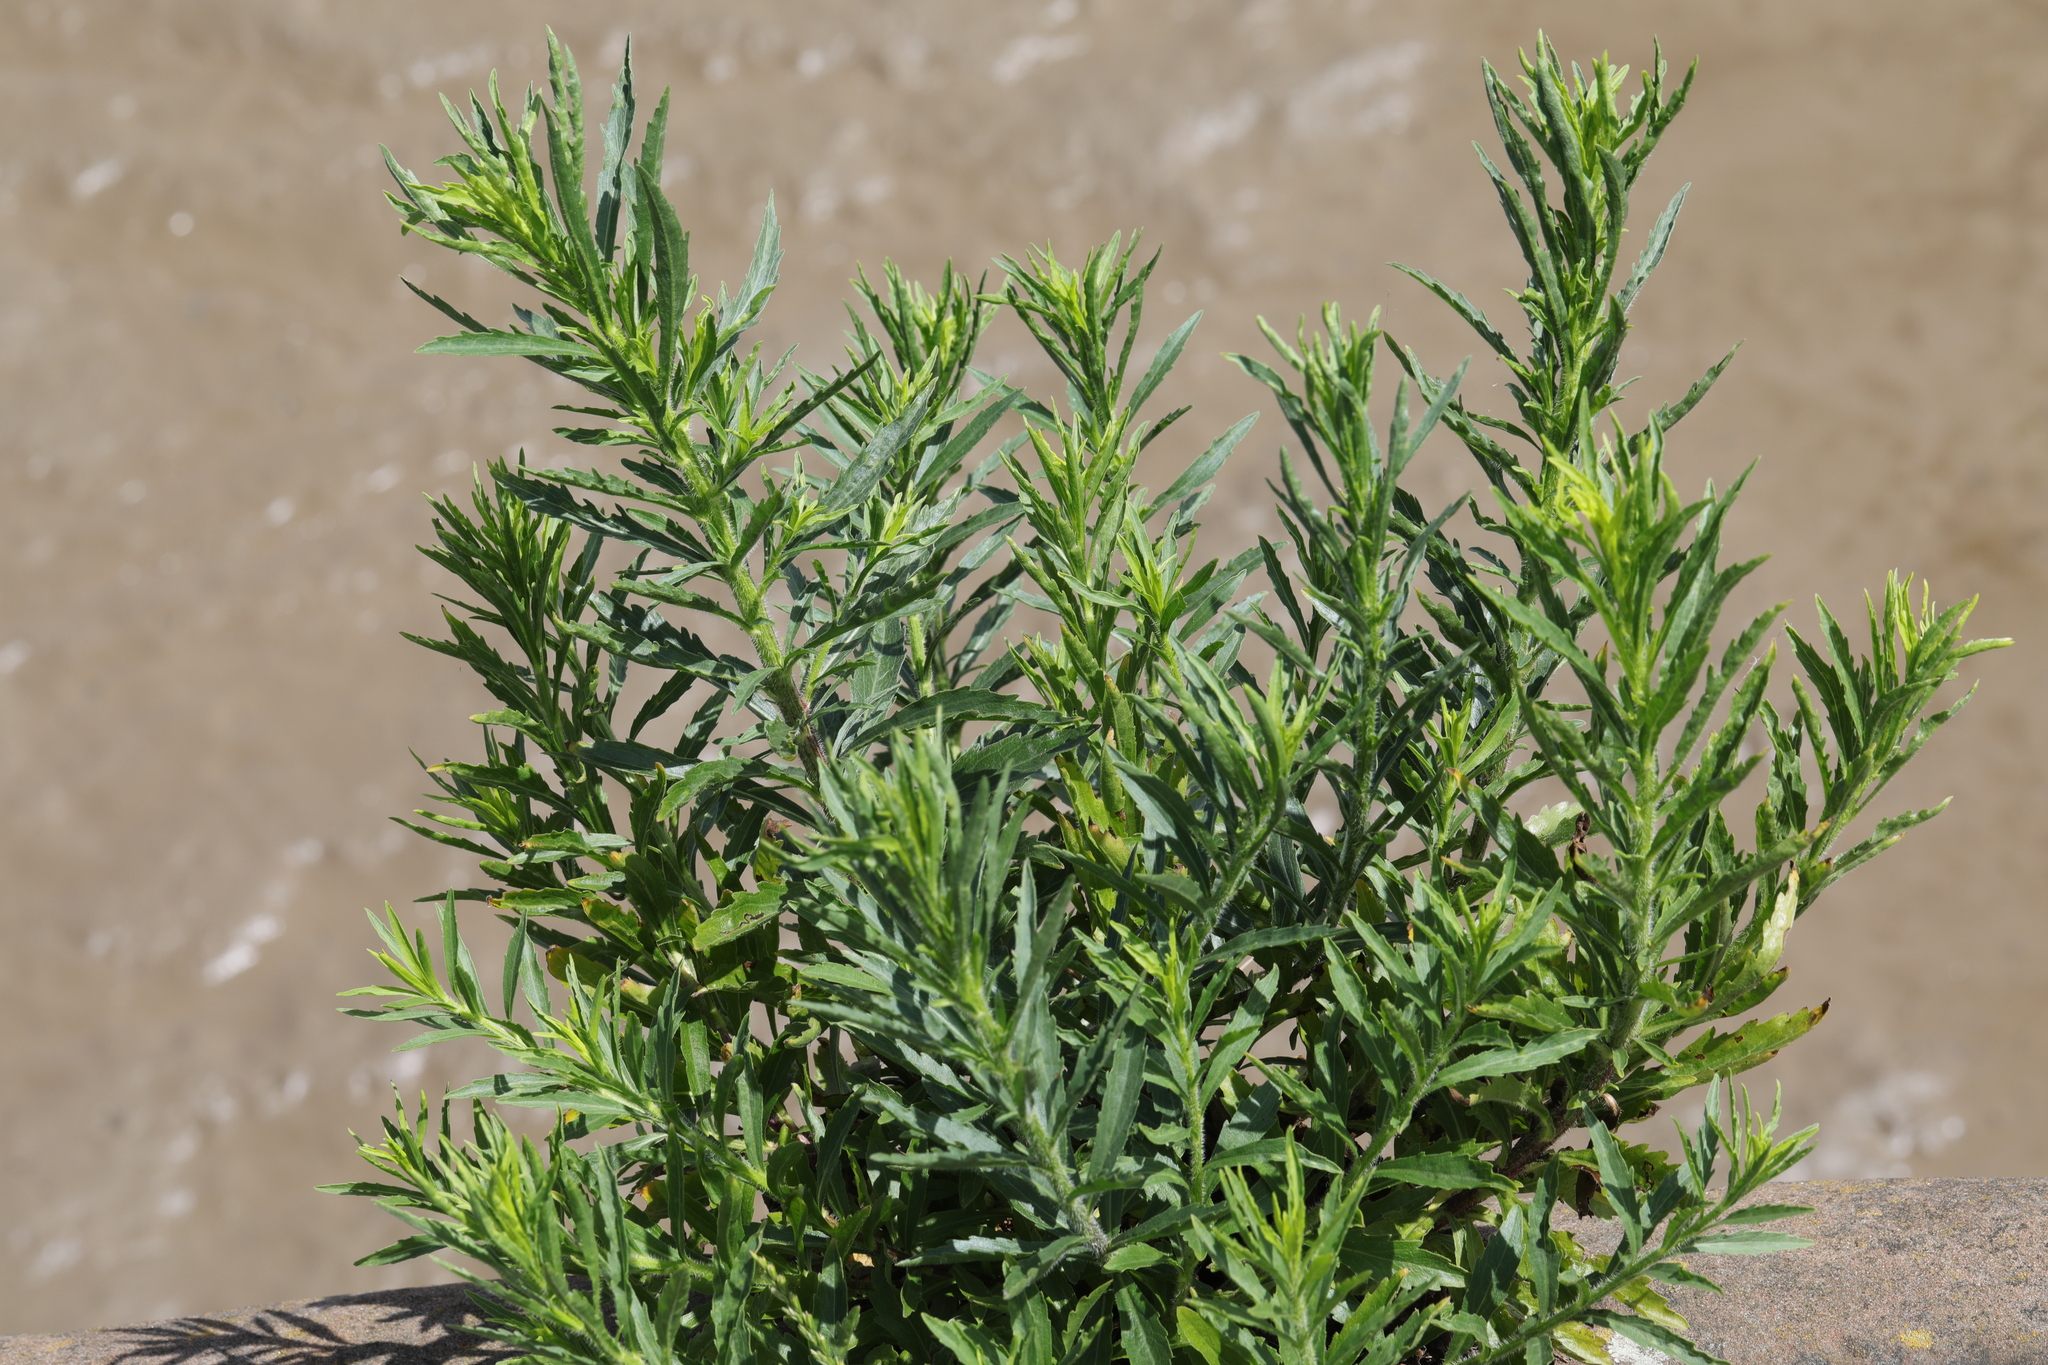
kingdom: Plantae
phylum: Tracheophyta
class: Magnoliopsida
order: Brassicales
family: Resedaceae
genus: Reseda
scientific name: Reseda luteola
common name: Weld
